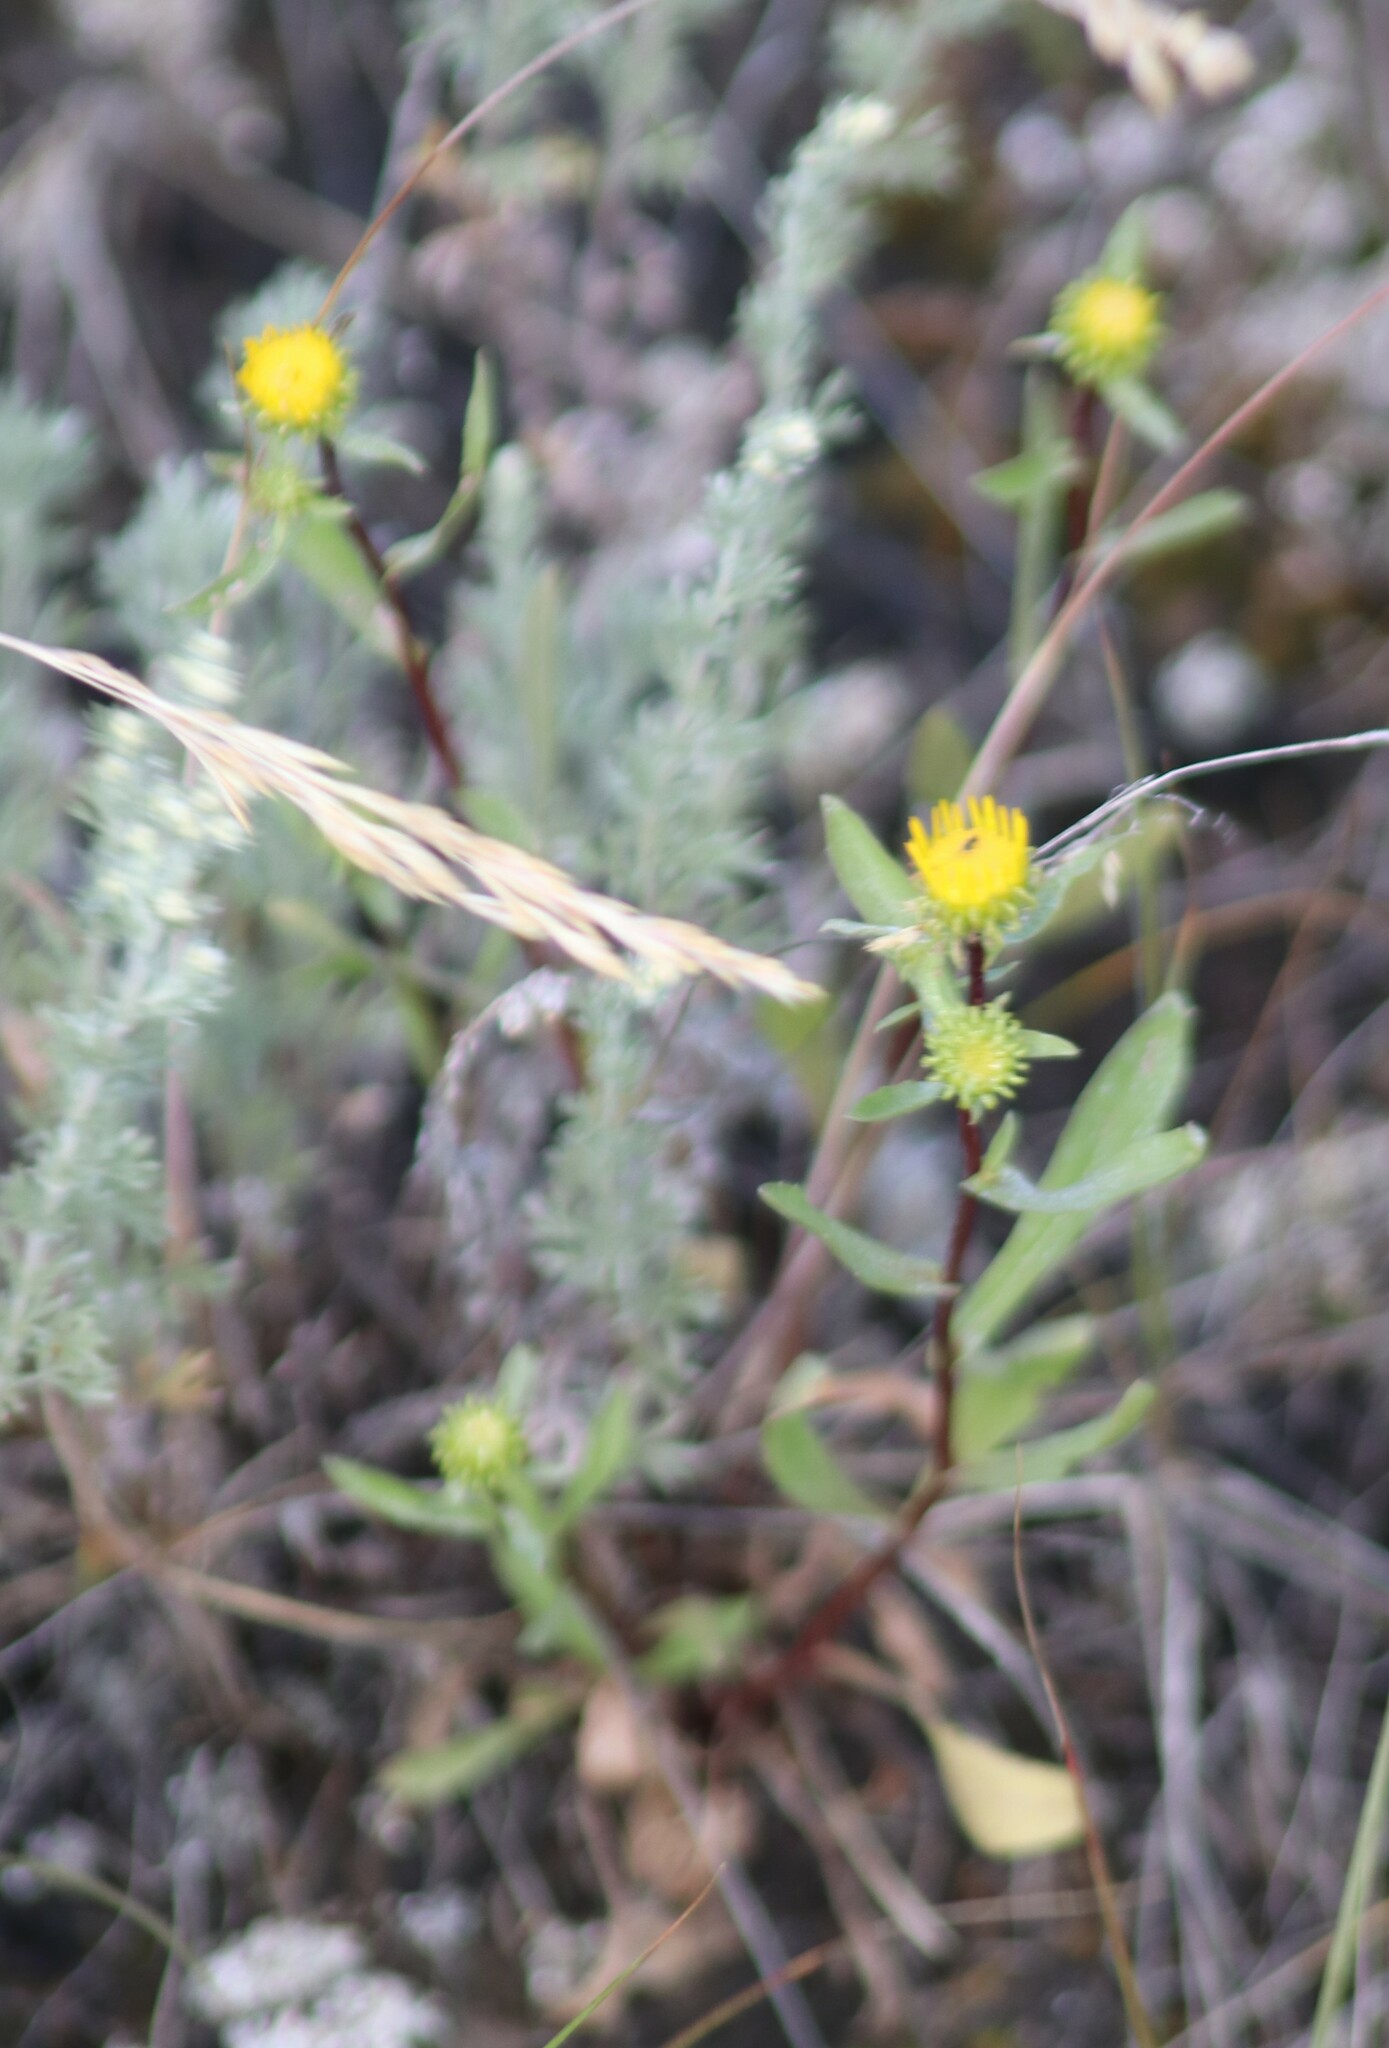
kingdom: Plantae
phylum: Tracheophyta
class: Magnoliopsida
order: Asterales
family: Asteraceae
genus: Grindelia
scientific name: Grindelia squarrosa
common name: Curly-cup gumweed
